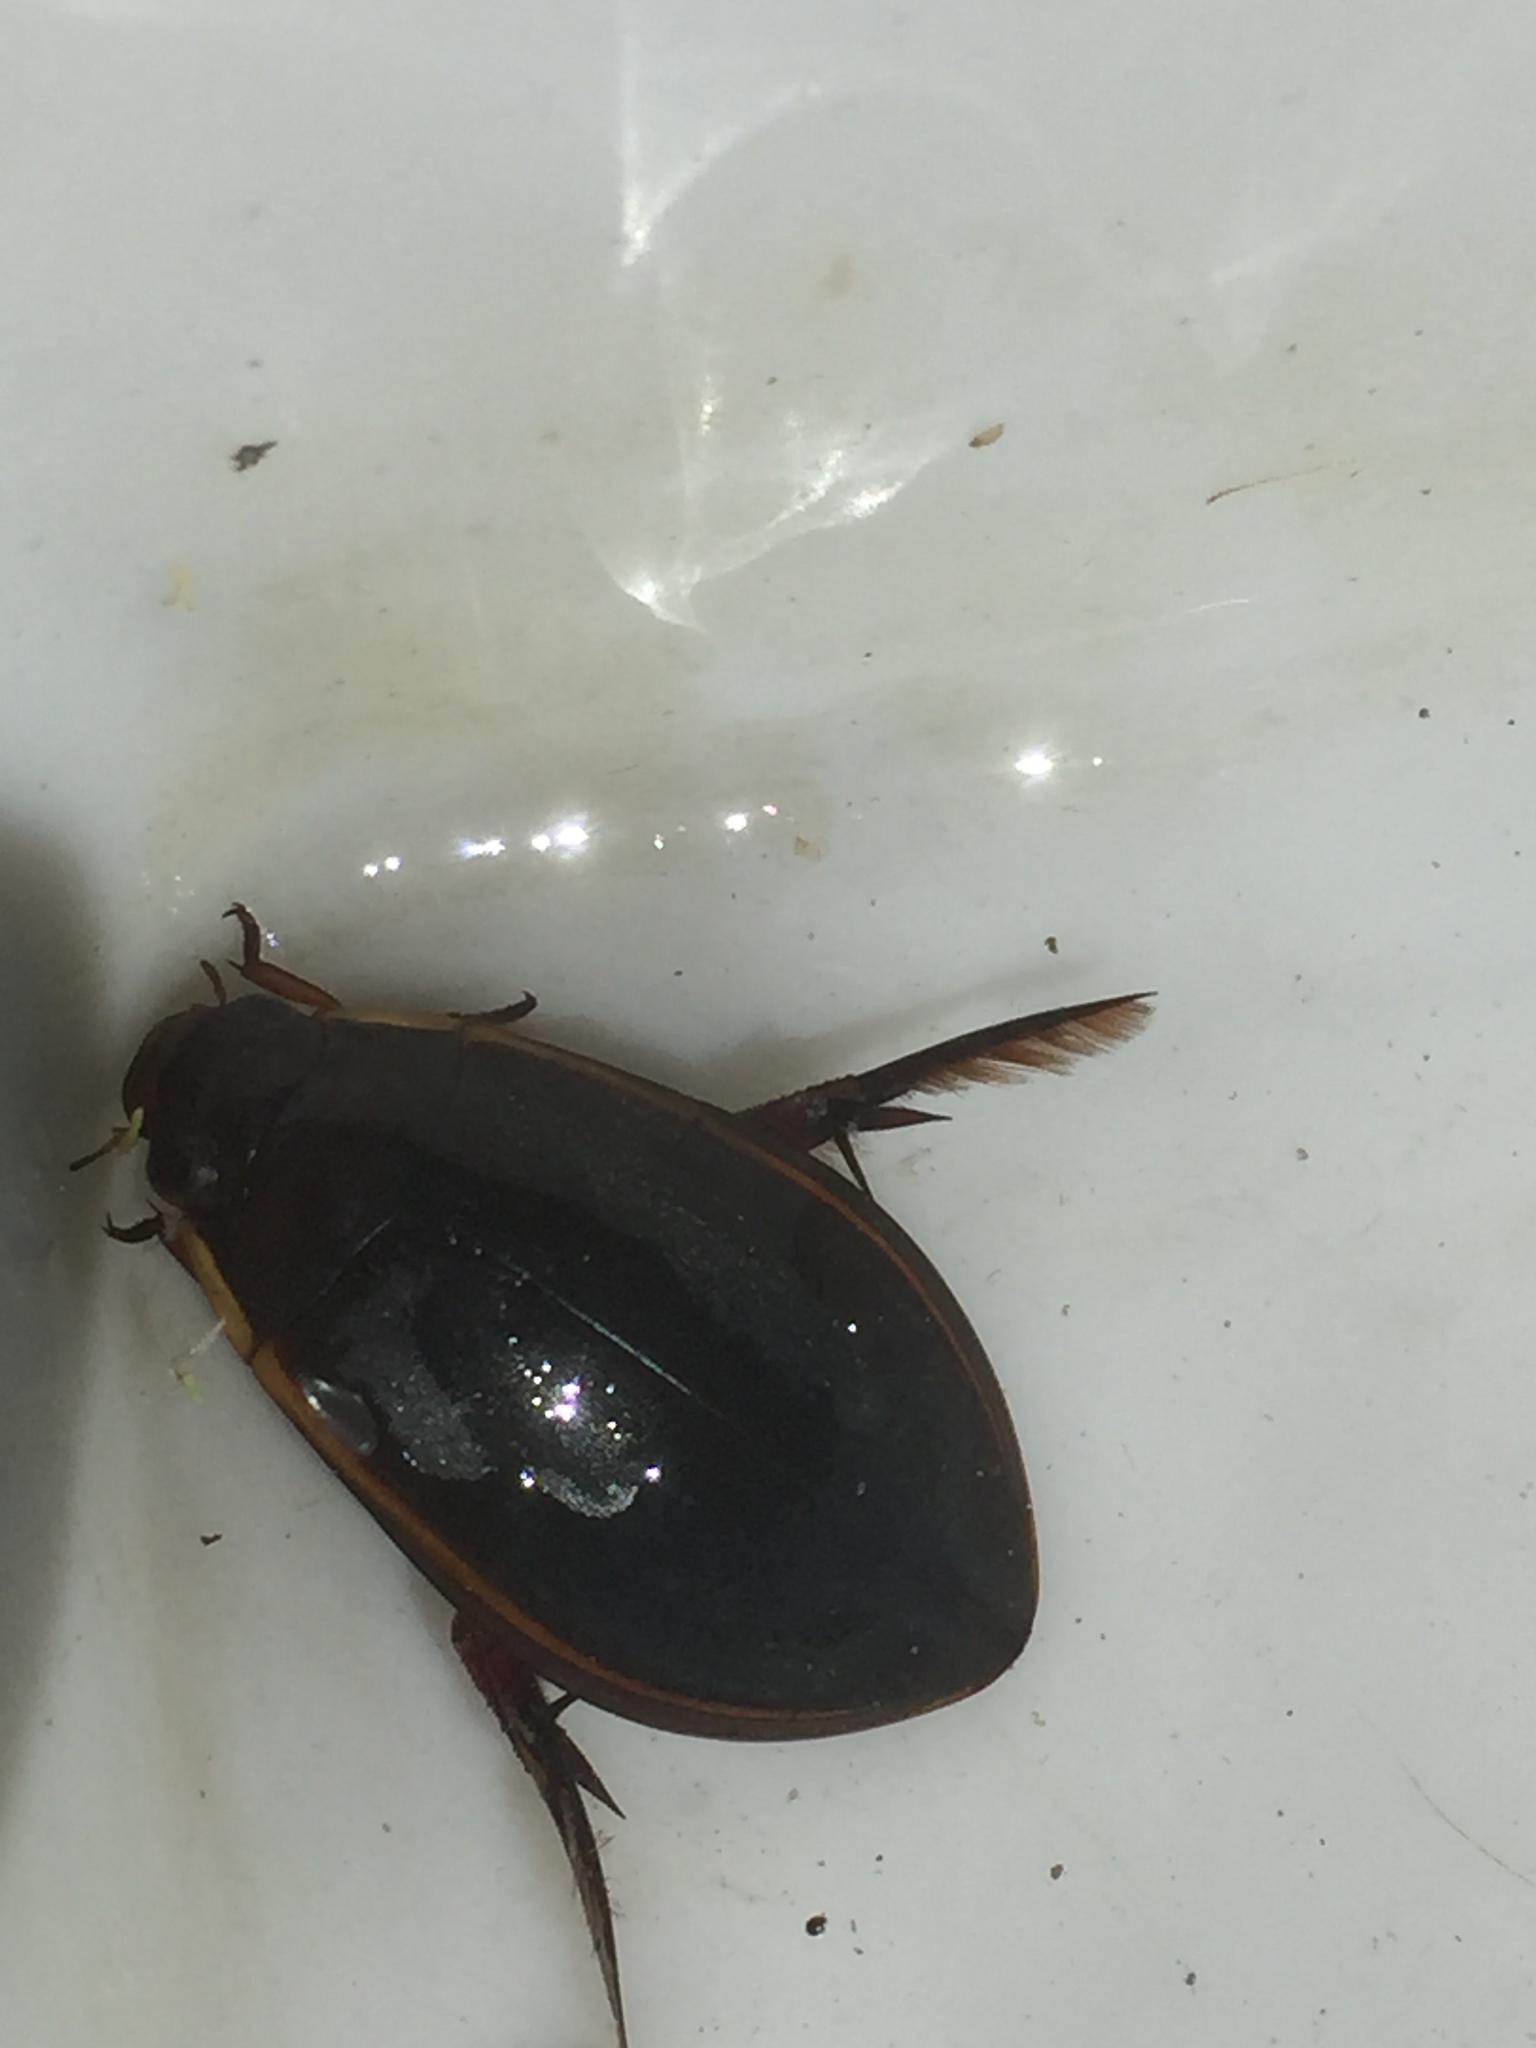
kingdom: Animalia
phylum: Arthropoda
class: Insecta
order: Coleoptera
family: Dytiscidae
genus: Cybister
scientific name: Cybister lateralimarginalis
